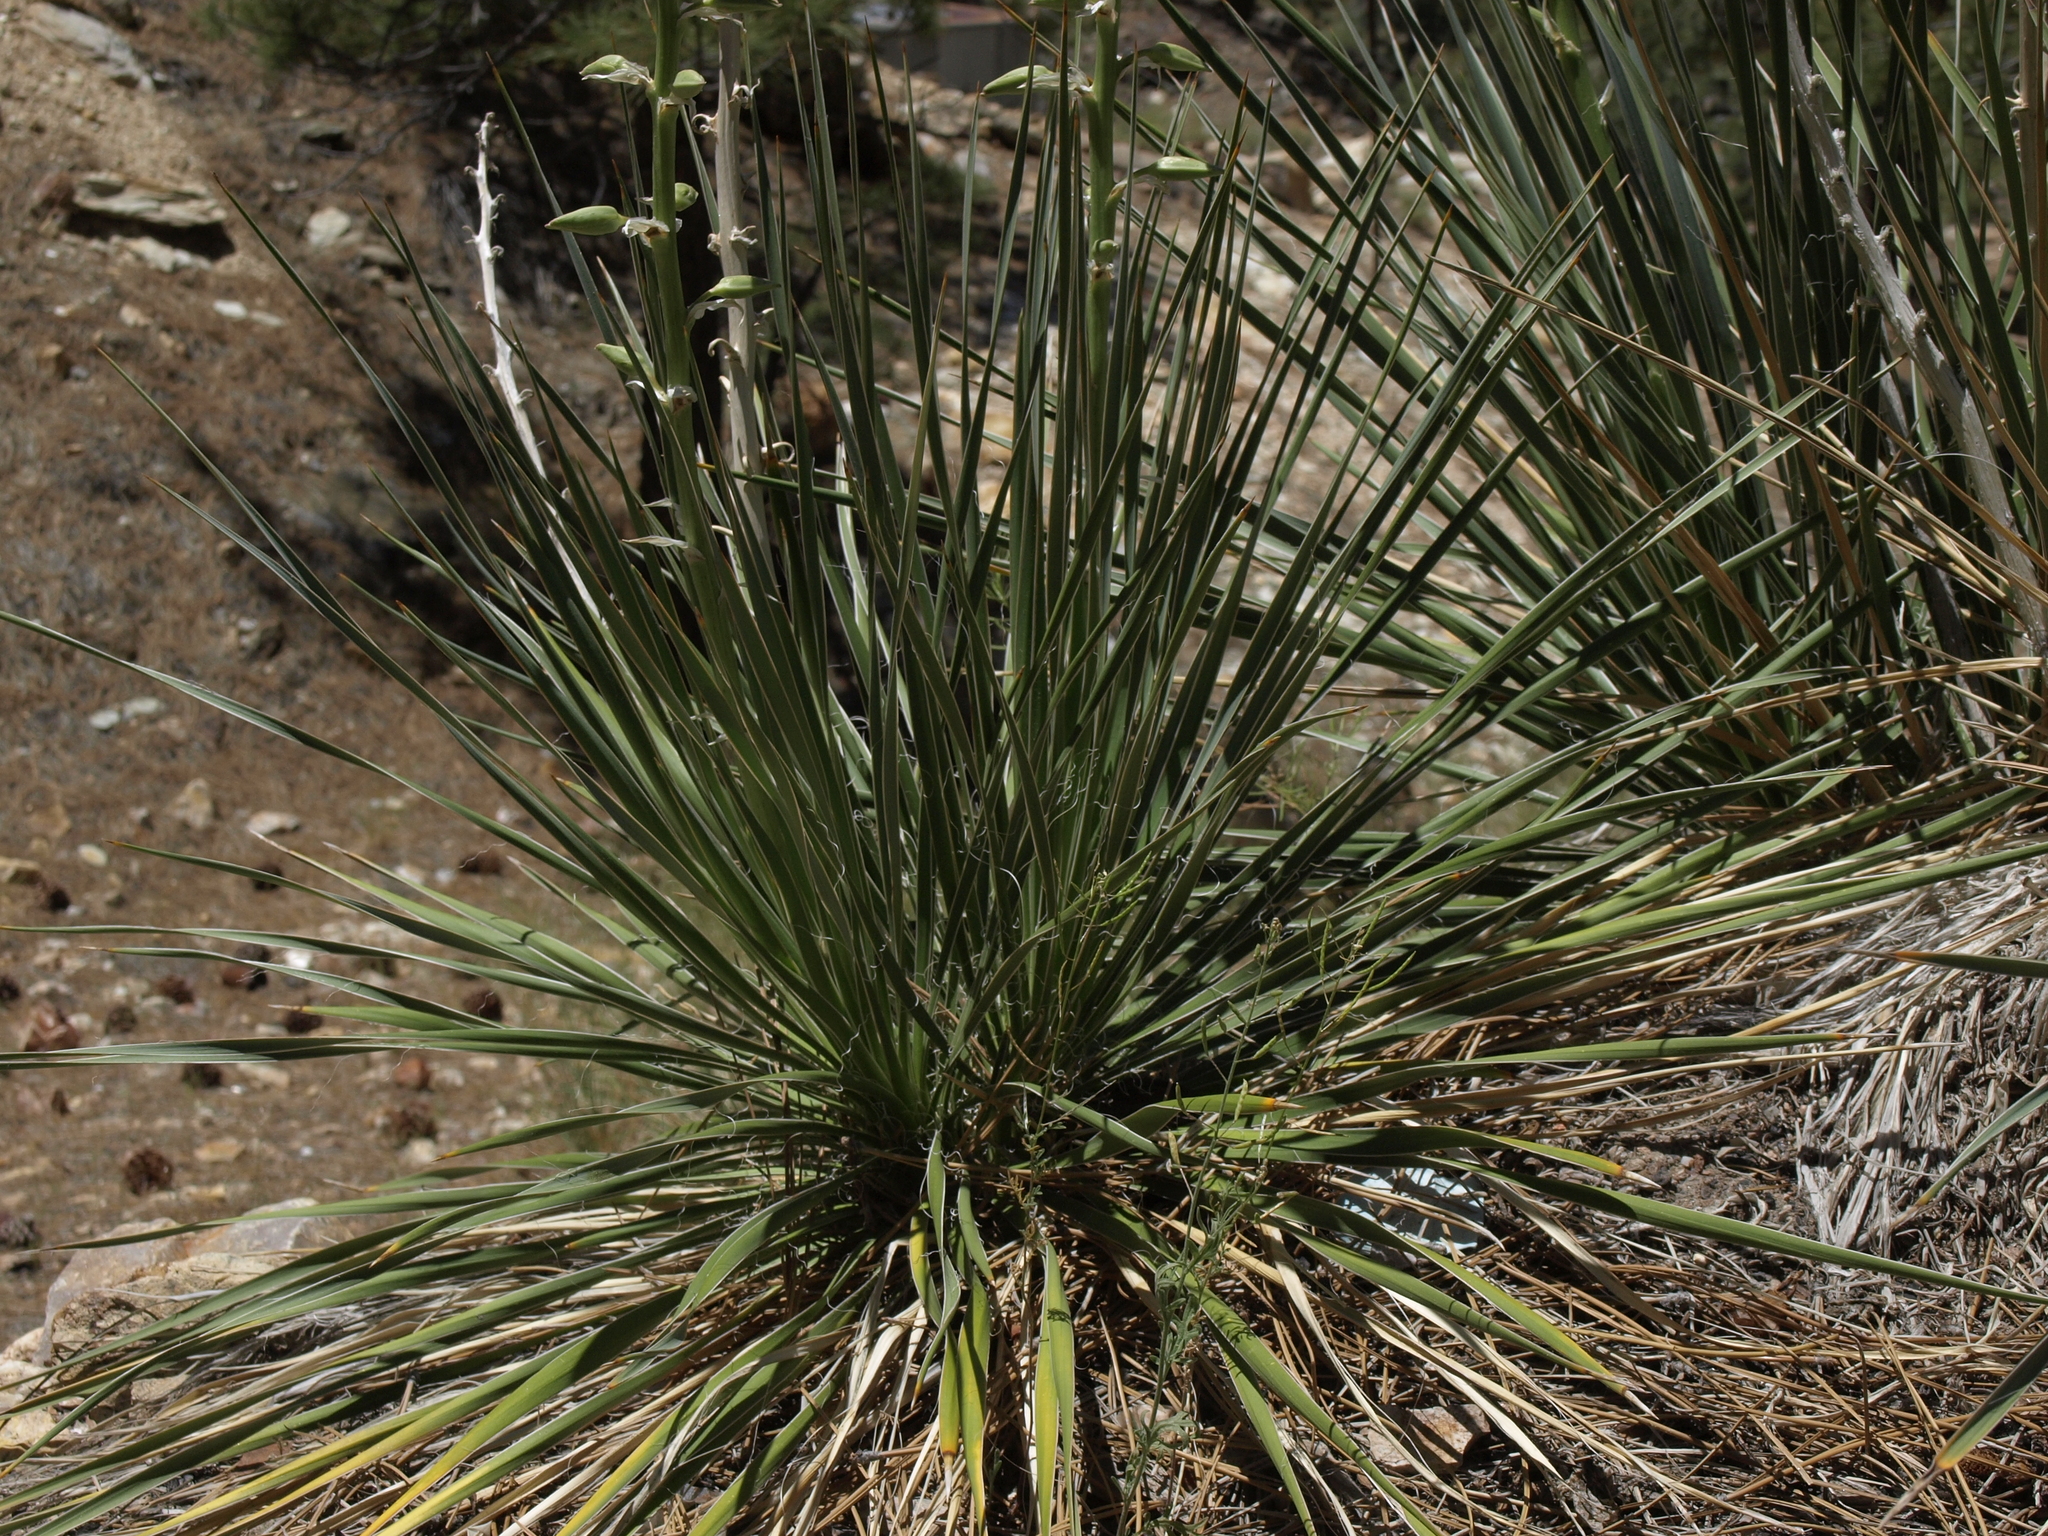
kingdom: Plantae
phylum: Tracheophyta
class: Liliopsida
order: Asparagales
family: Asparagaceae
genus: Yucca
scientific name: Yucca glauca
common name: Great plains yucca
